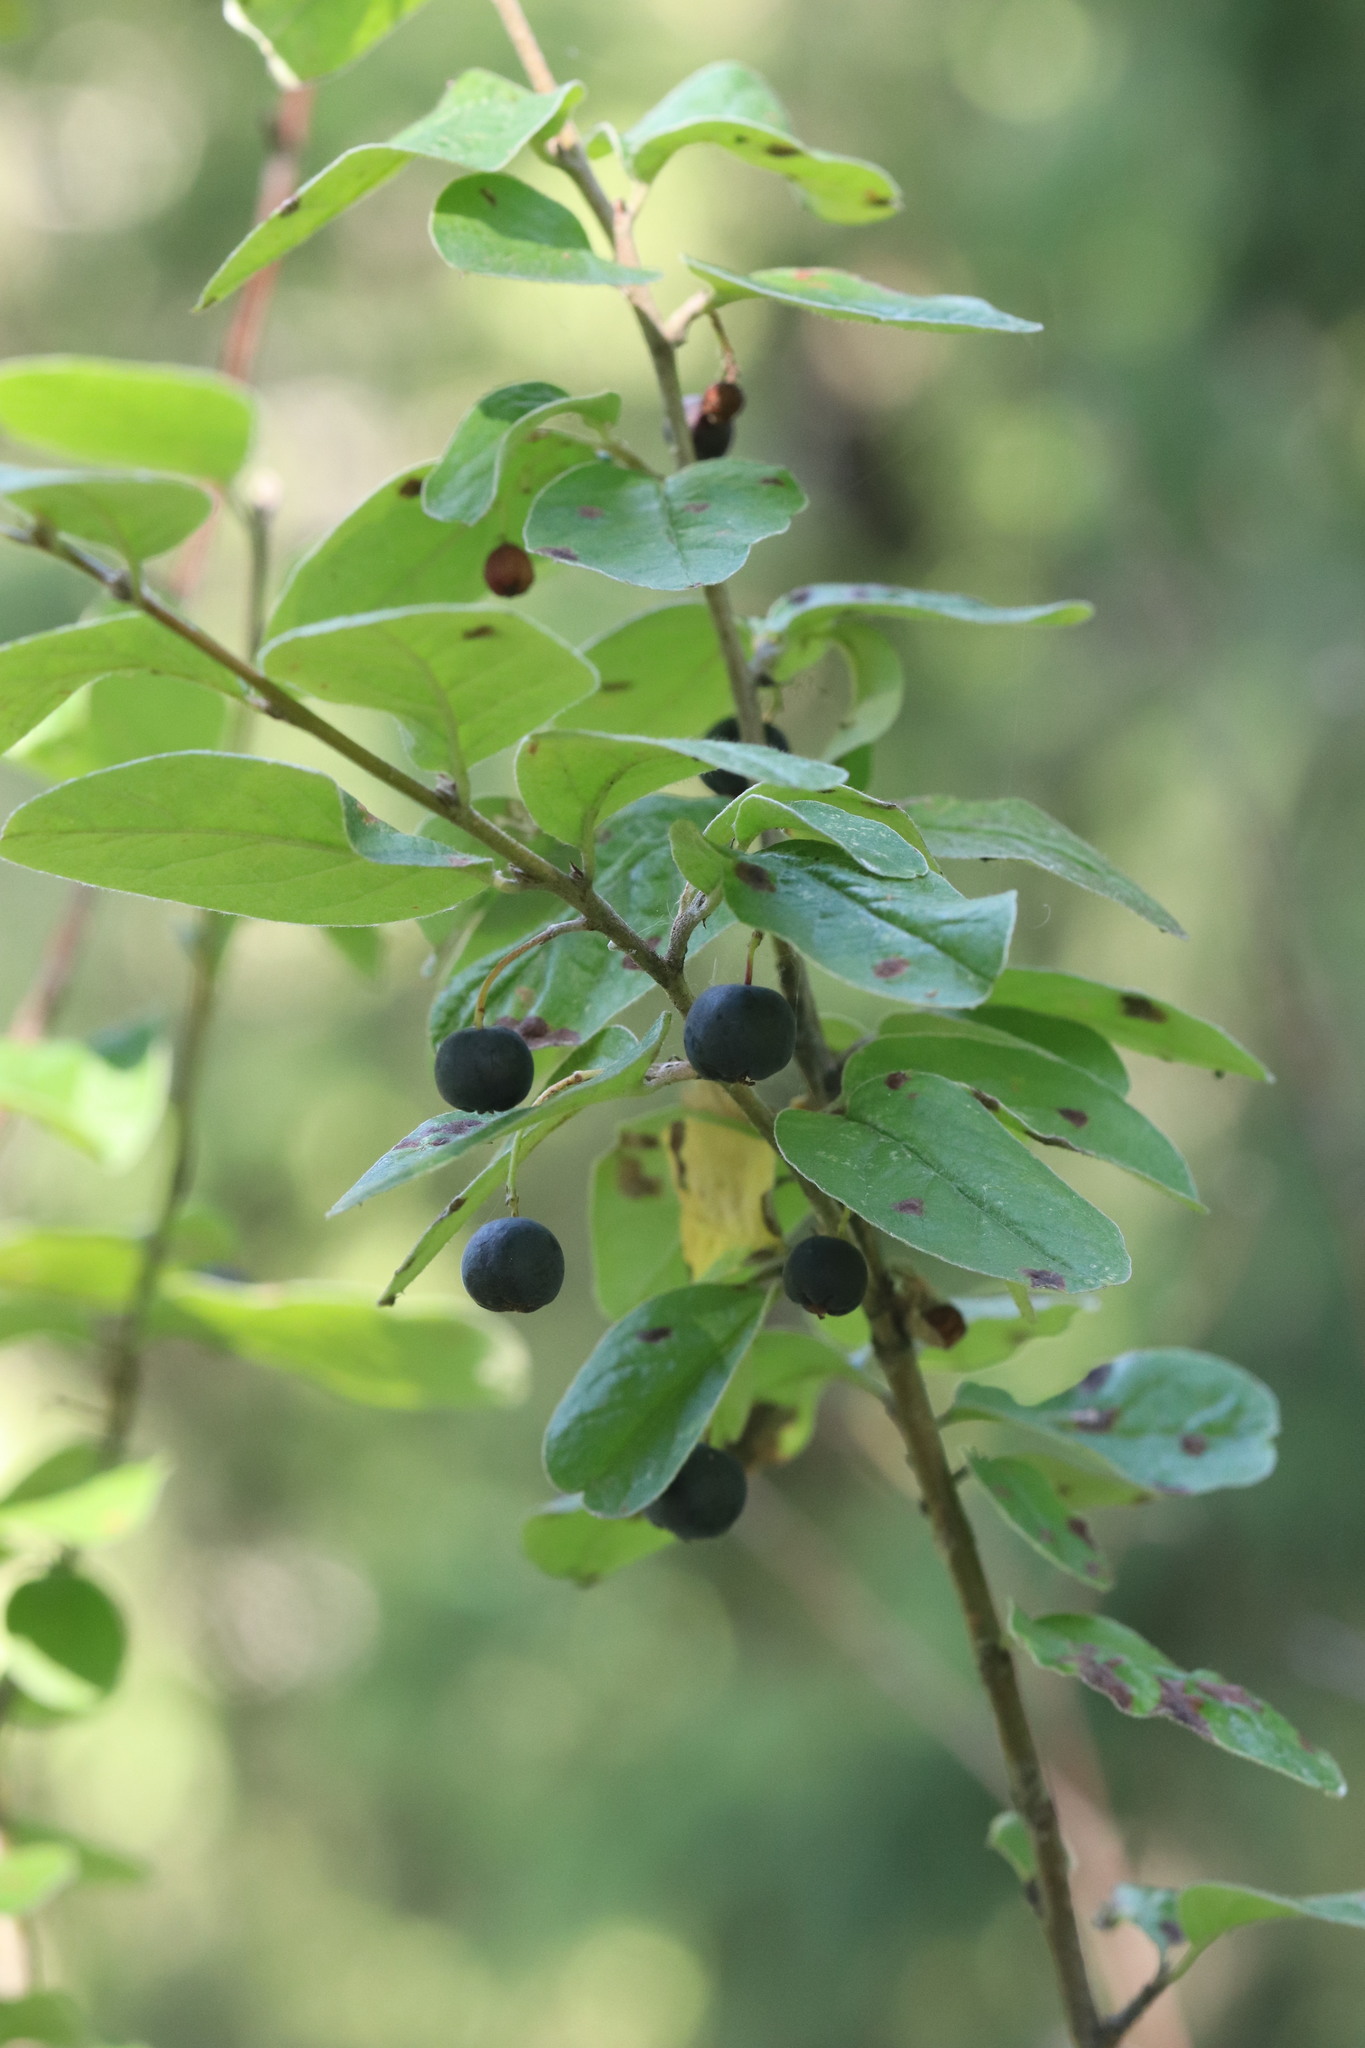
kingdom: Plantae
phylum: Tracheophyta
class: Magnoliopsida
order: Rosales
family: Rosaceae
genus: Cotoneaster
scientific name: Cotoneaster melanocarpus
